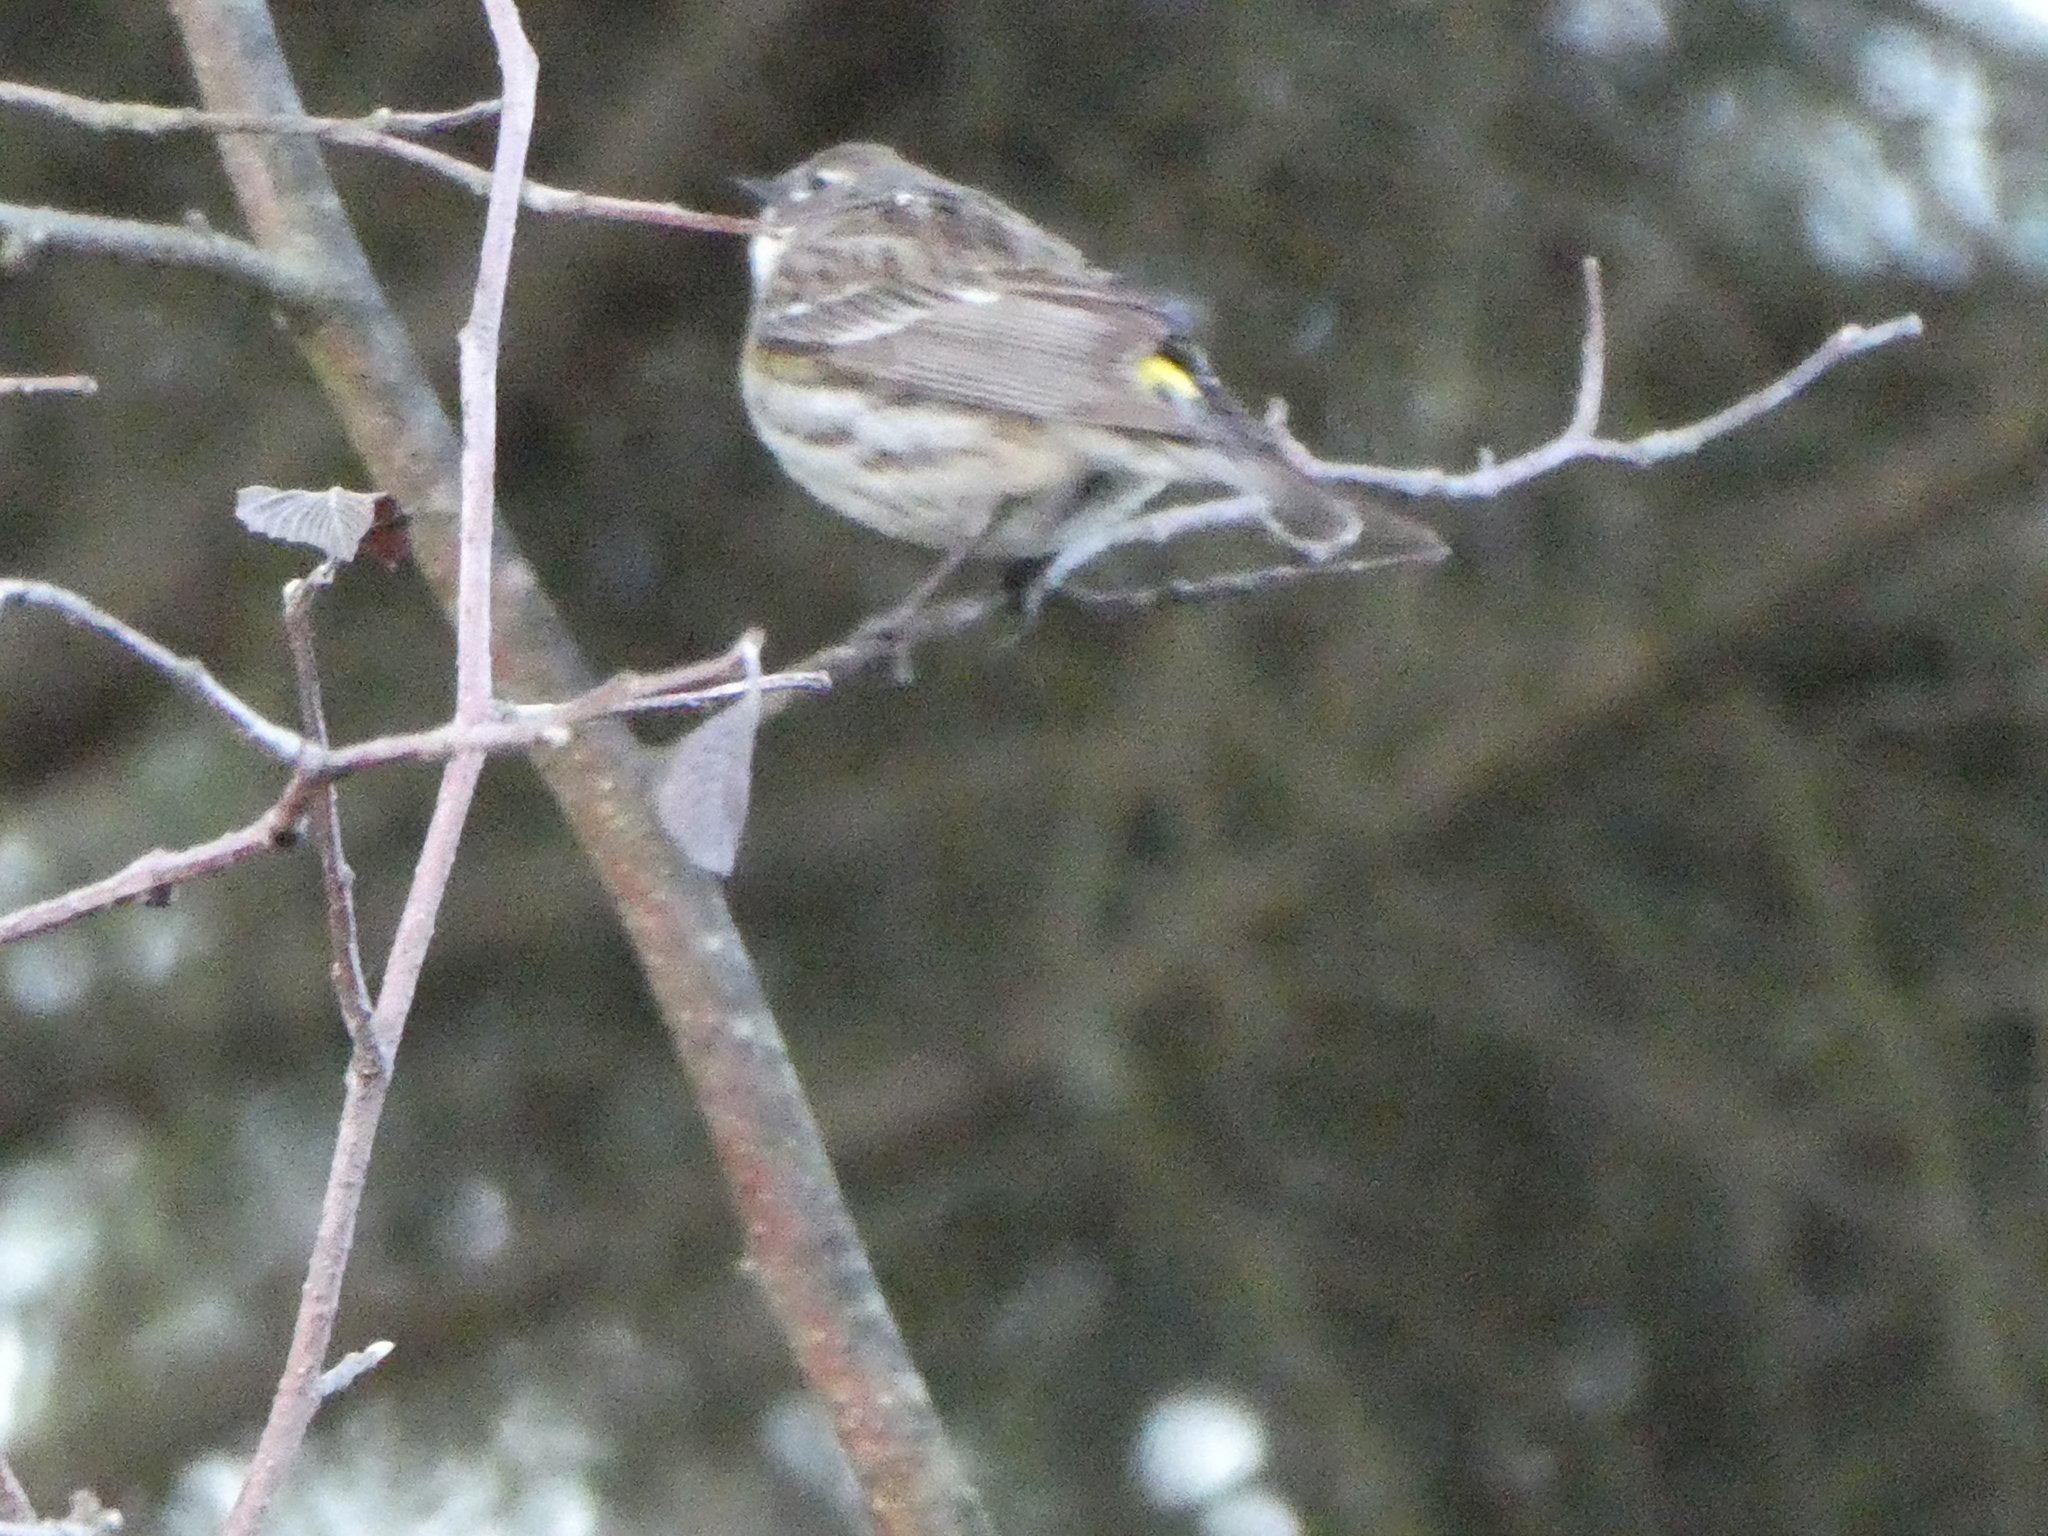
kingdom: Animalia
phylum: Chordata
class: Aves
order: Passeriformes
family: Parulidae
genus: Setophaga
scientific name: Setophaga coronata
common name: Myrtle warbler
